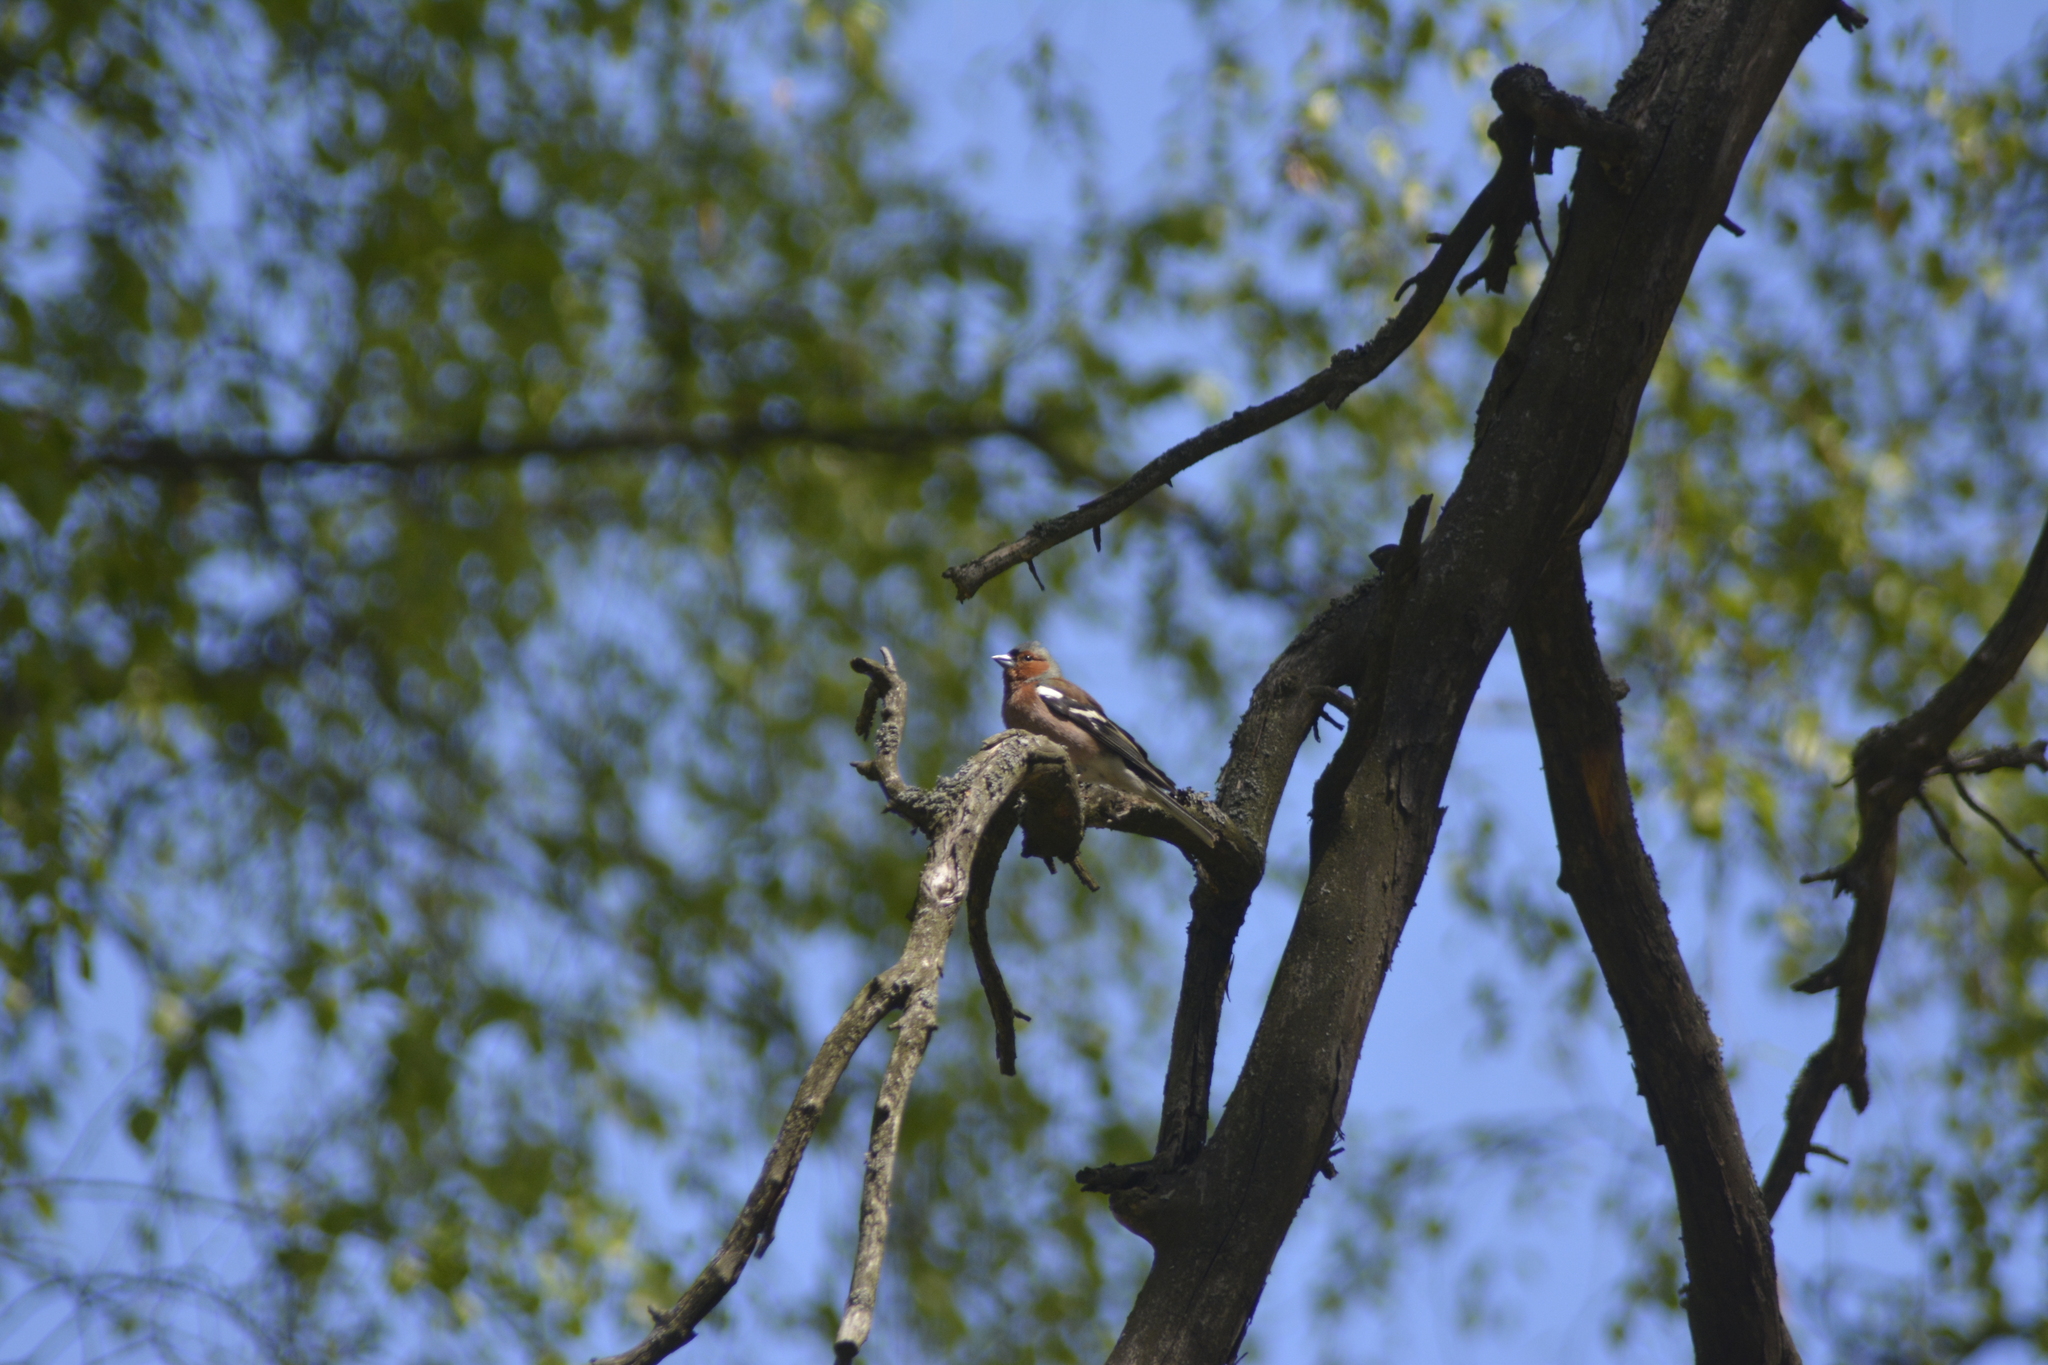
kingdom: Animalia
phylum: Chordata
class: Aves
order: Passeriformes
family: Fringillidae
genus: Fringilla
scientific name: Fringilla coelebs
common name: Common chaffinch
